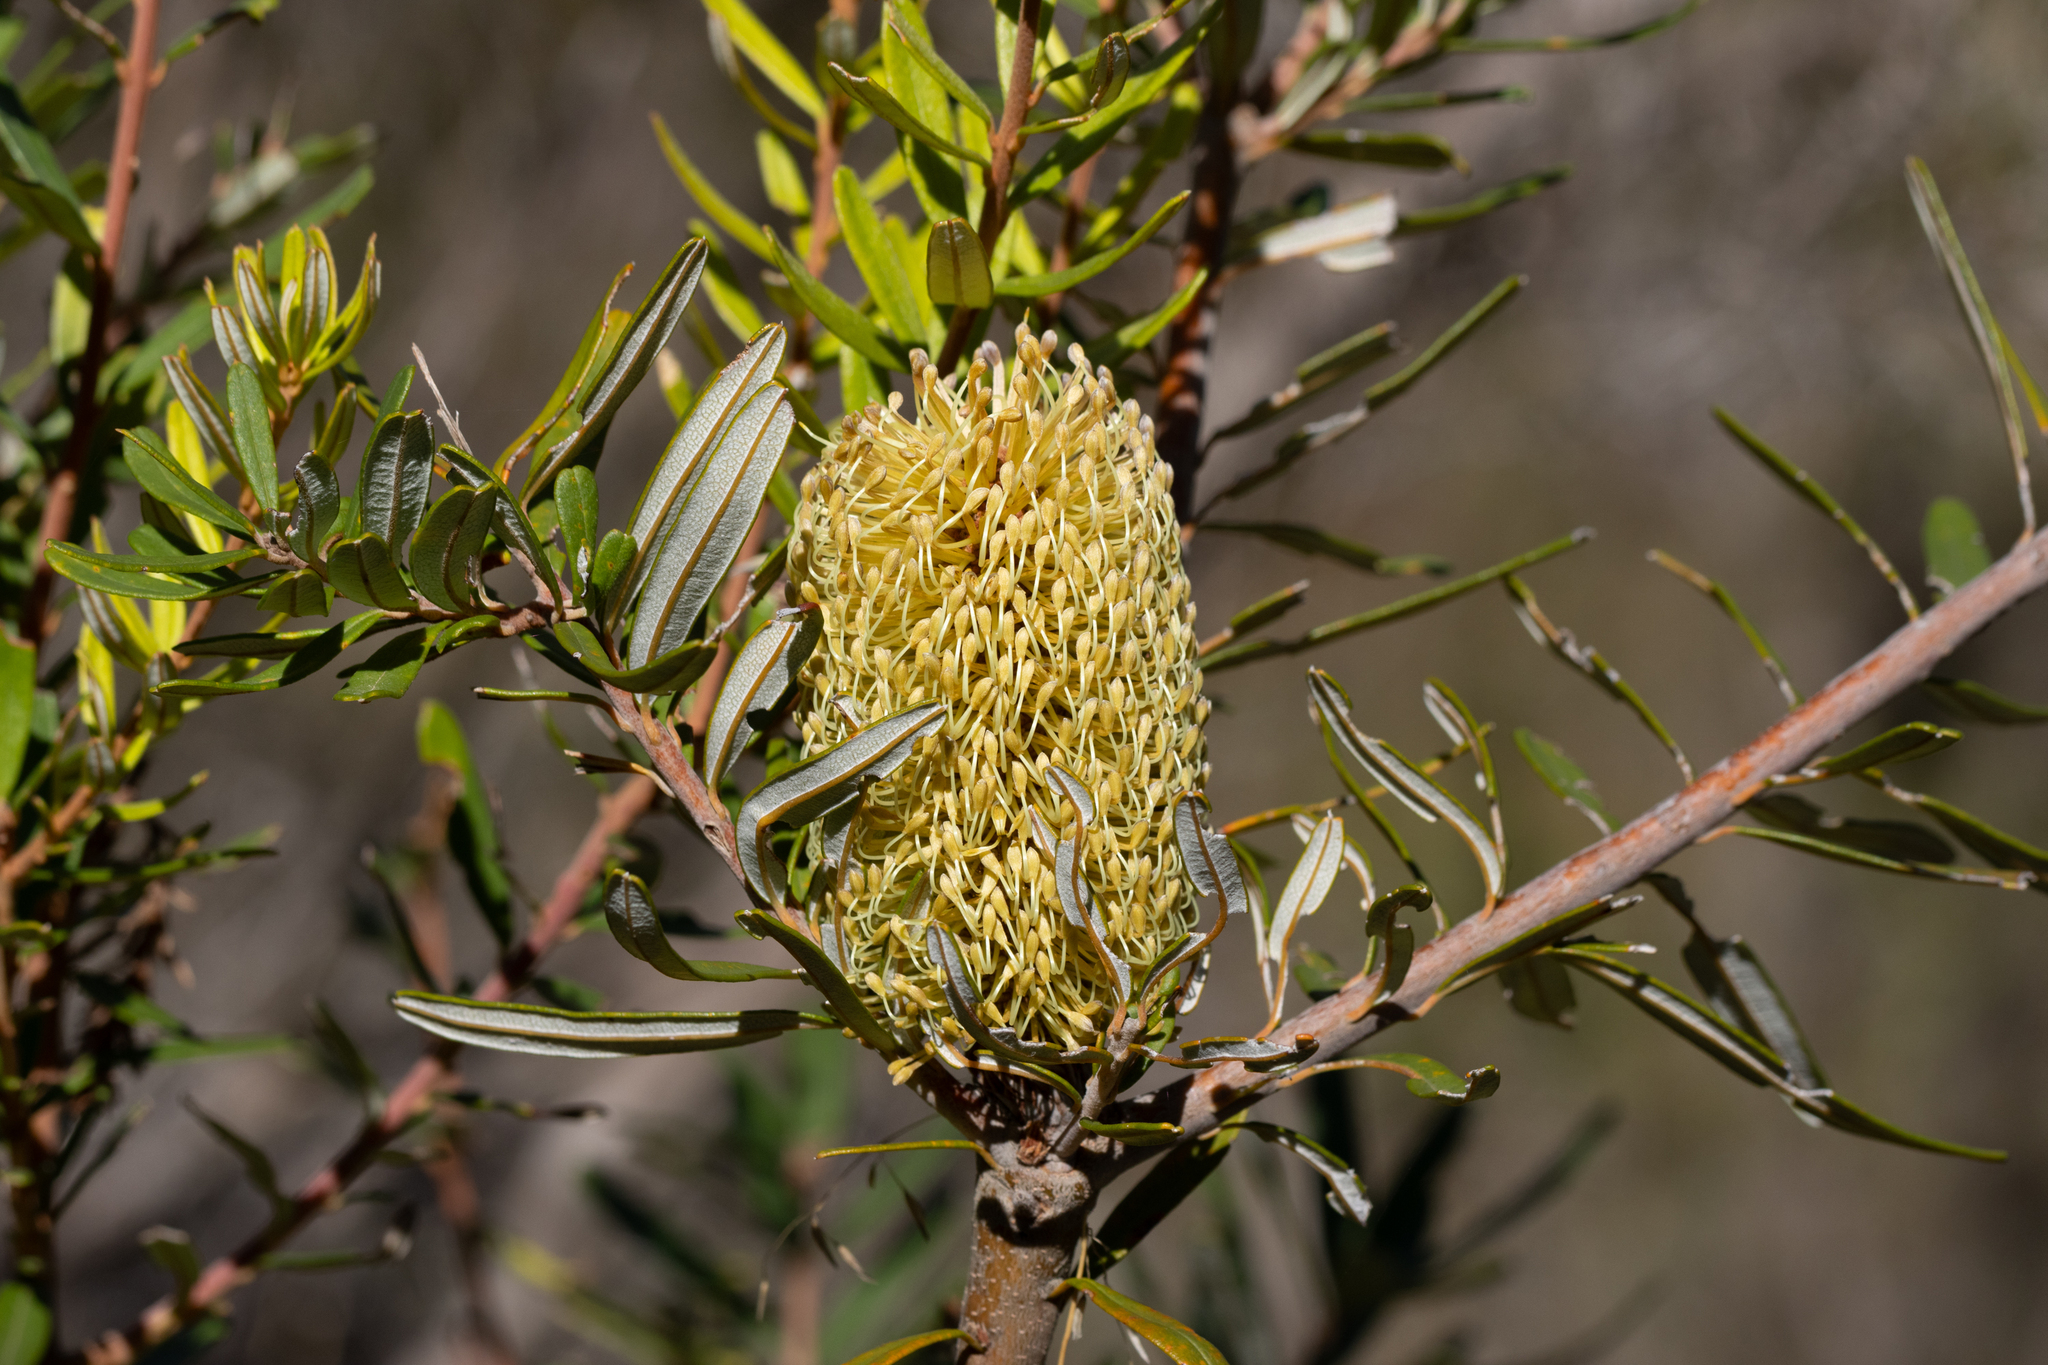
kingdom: Plantae
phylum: Tracheophyta
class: Magnoliopsida
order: Proteales
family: Proteaceae
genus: Banksia
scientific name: Banksia marginata
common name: Silver banksia
